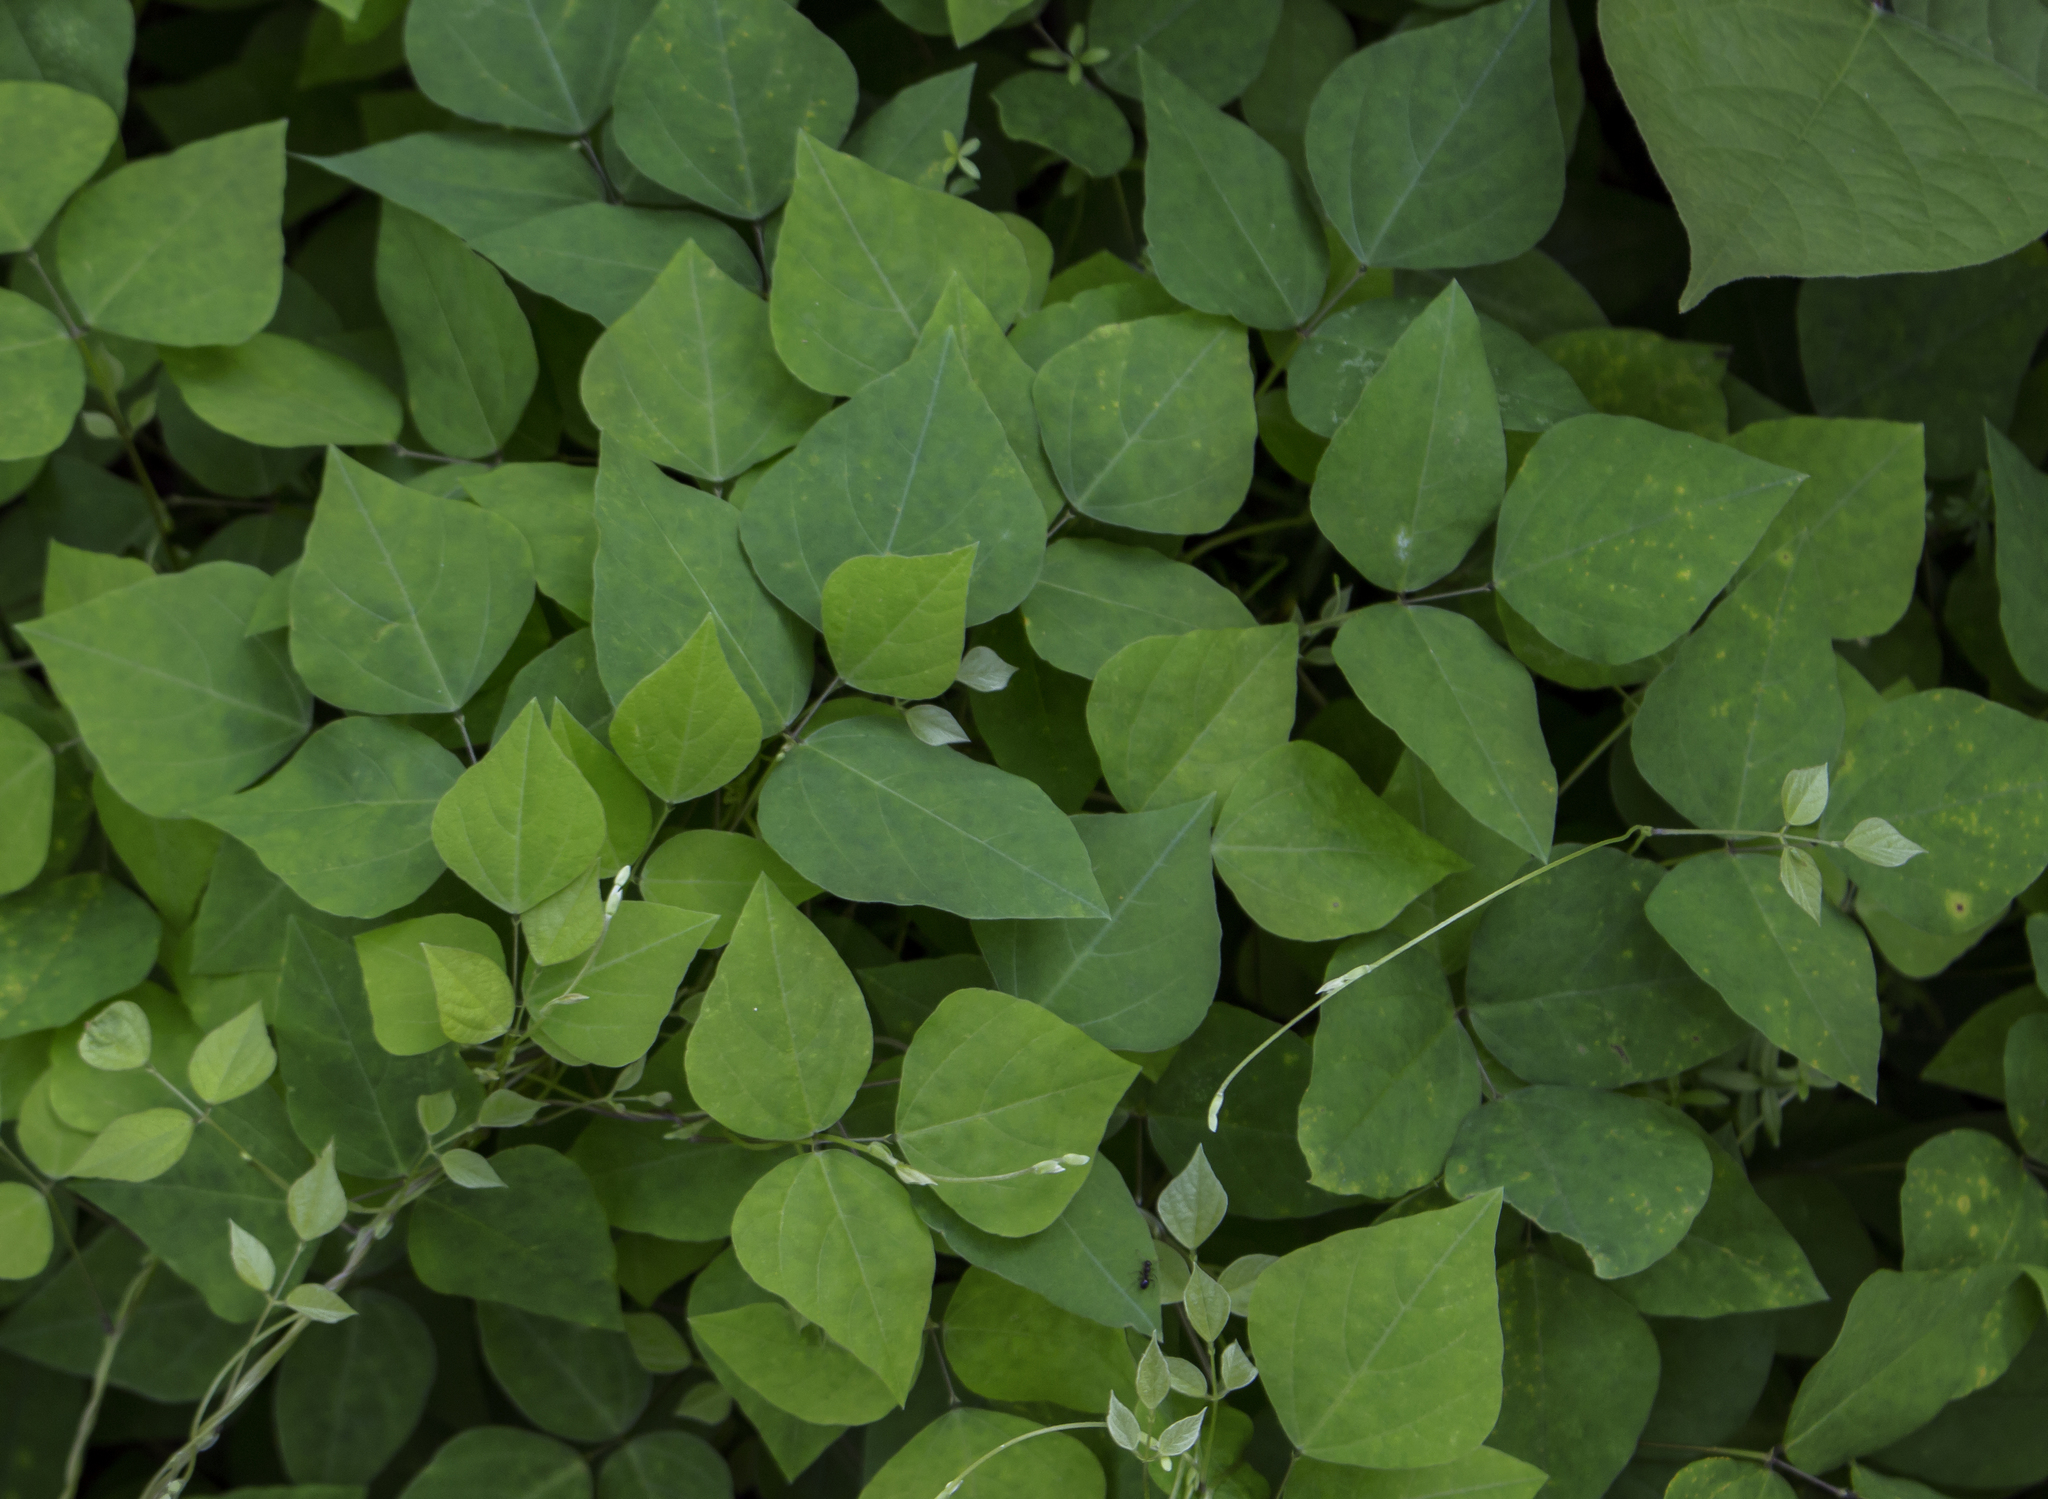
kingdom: Plantae
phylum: Tracheophyta
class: Magnoliopsida
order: Fabales
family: Fabaceae
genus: Amphicarpaea
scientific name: Amphicarpaea bracteata
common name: American hog peanut
